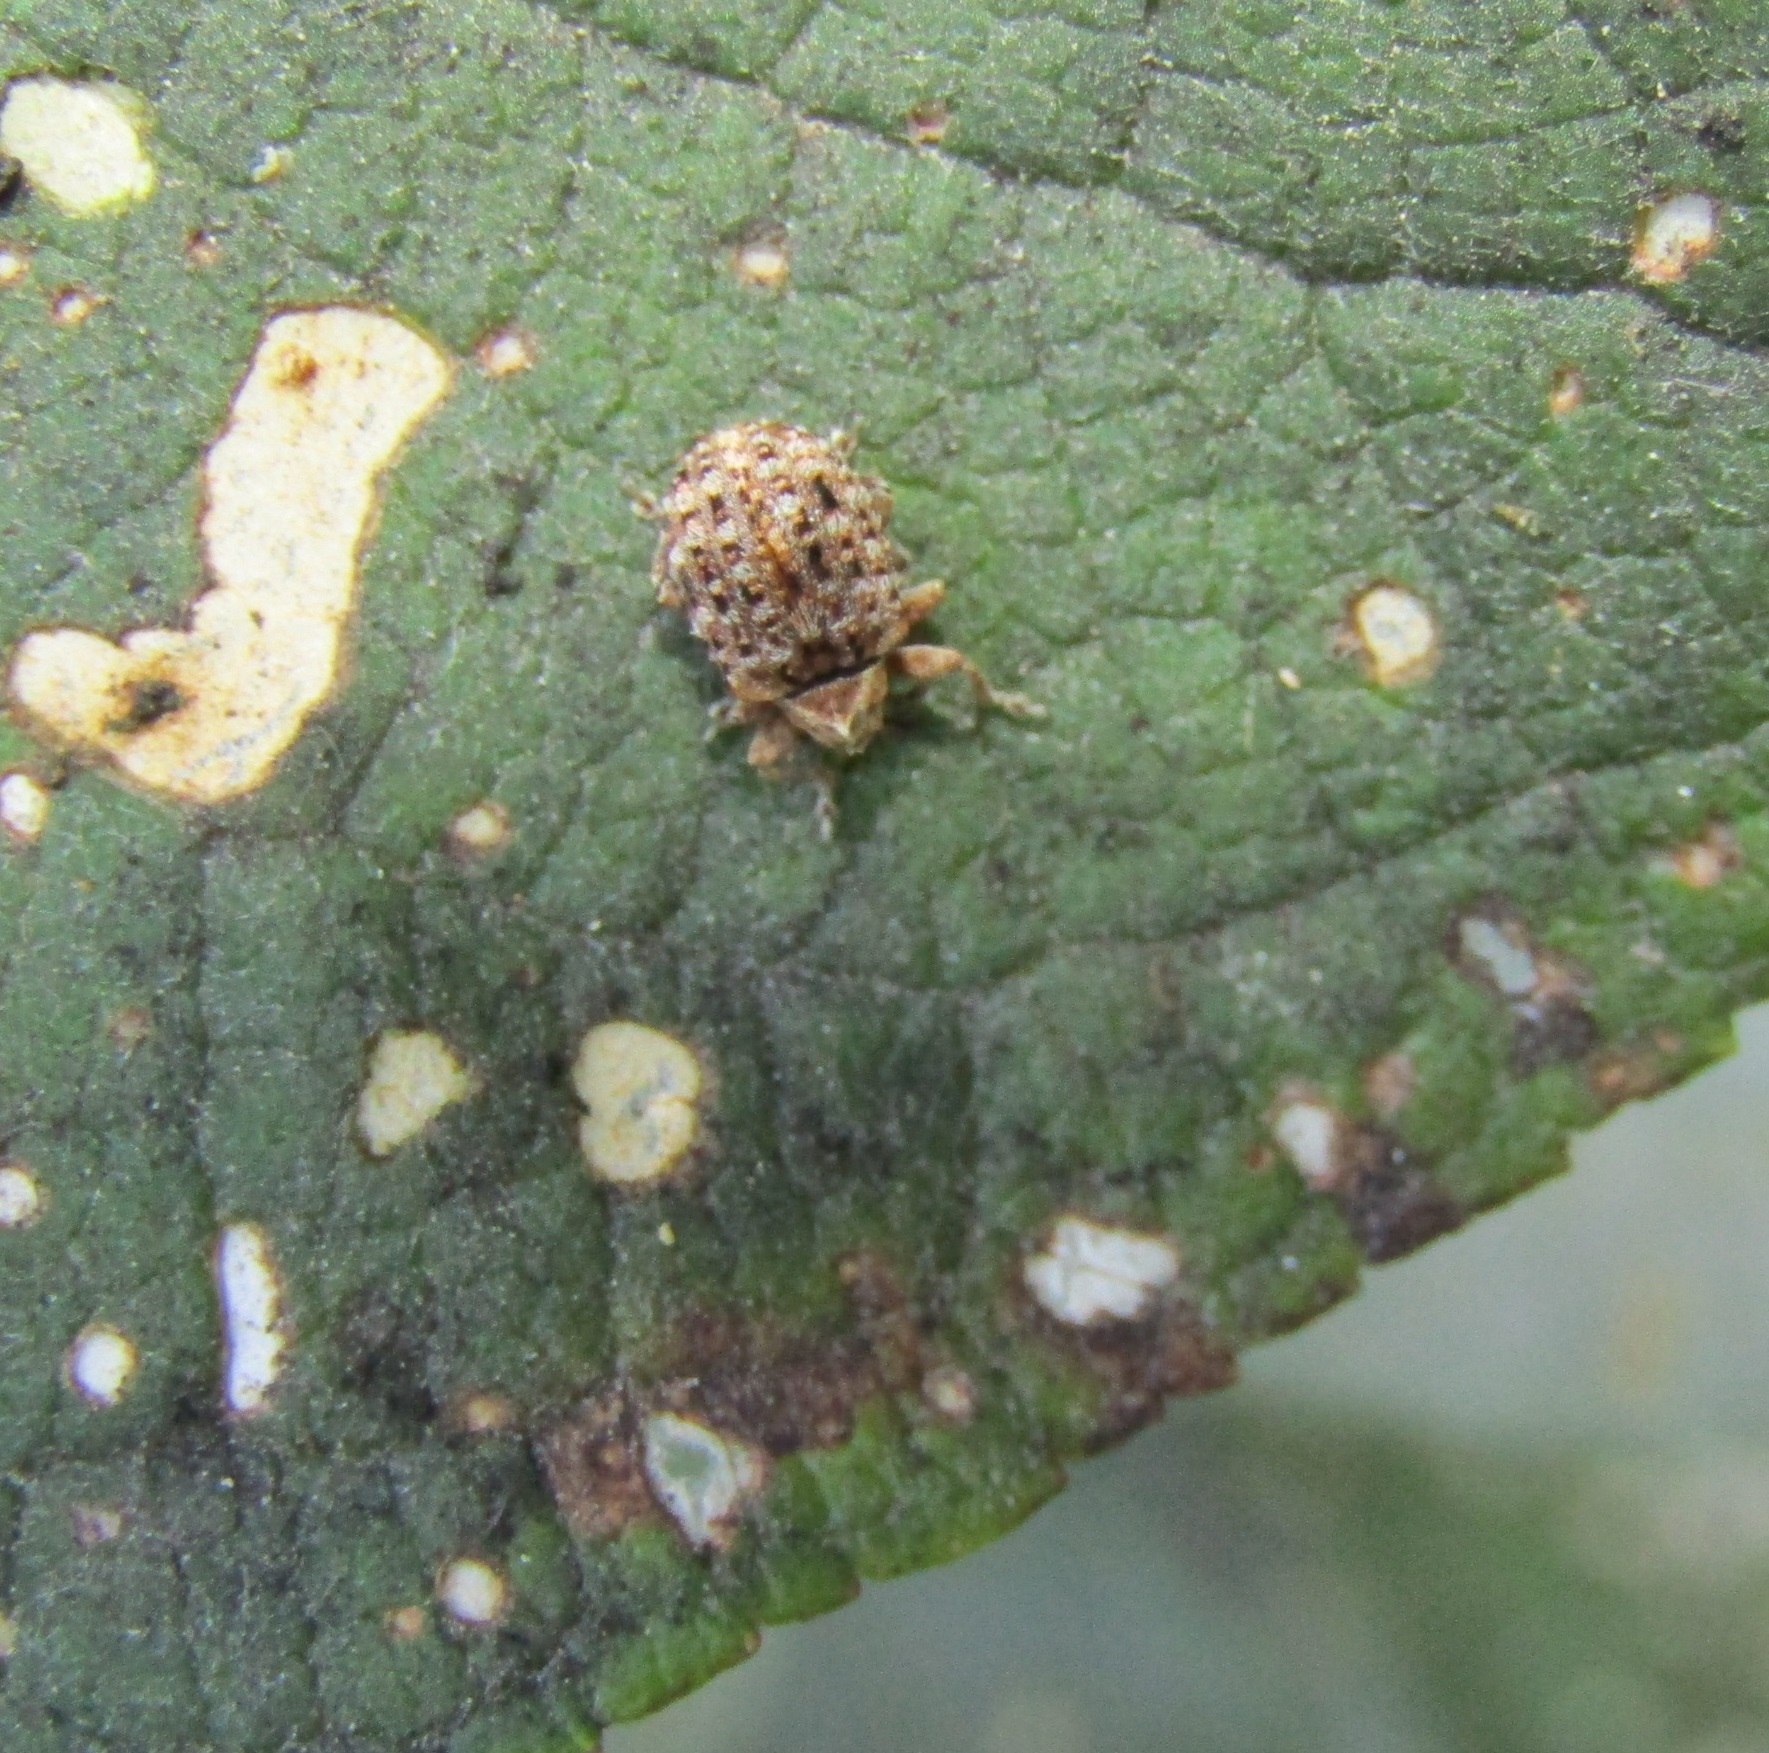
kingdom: Animalia
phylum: Arthropoda
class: Insecta
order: Coleoptera
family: Curculionidae
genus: Cleopus
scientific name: Cleopus japonicus
